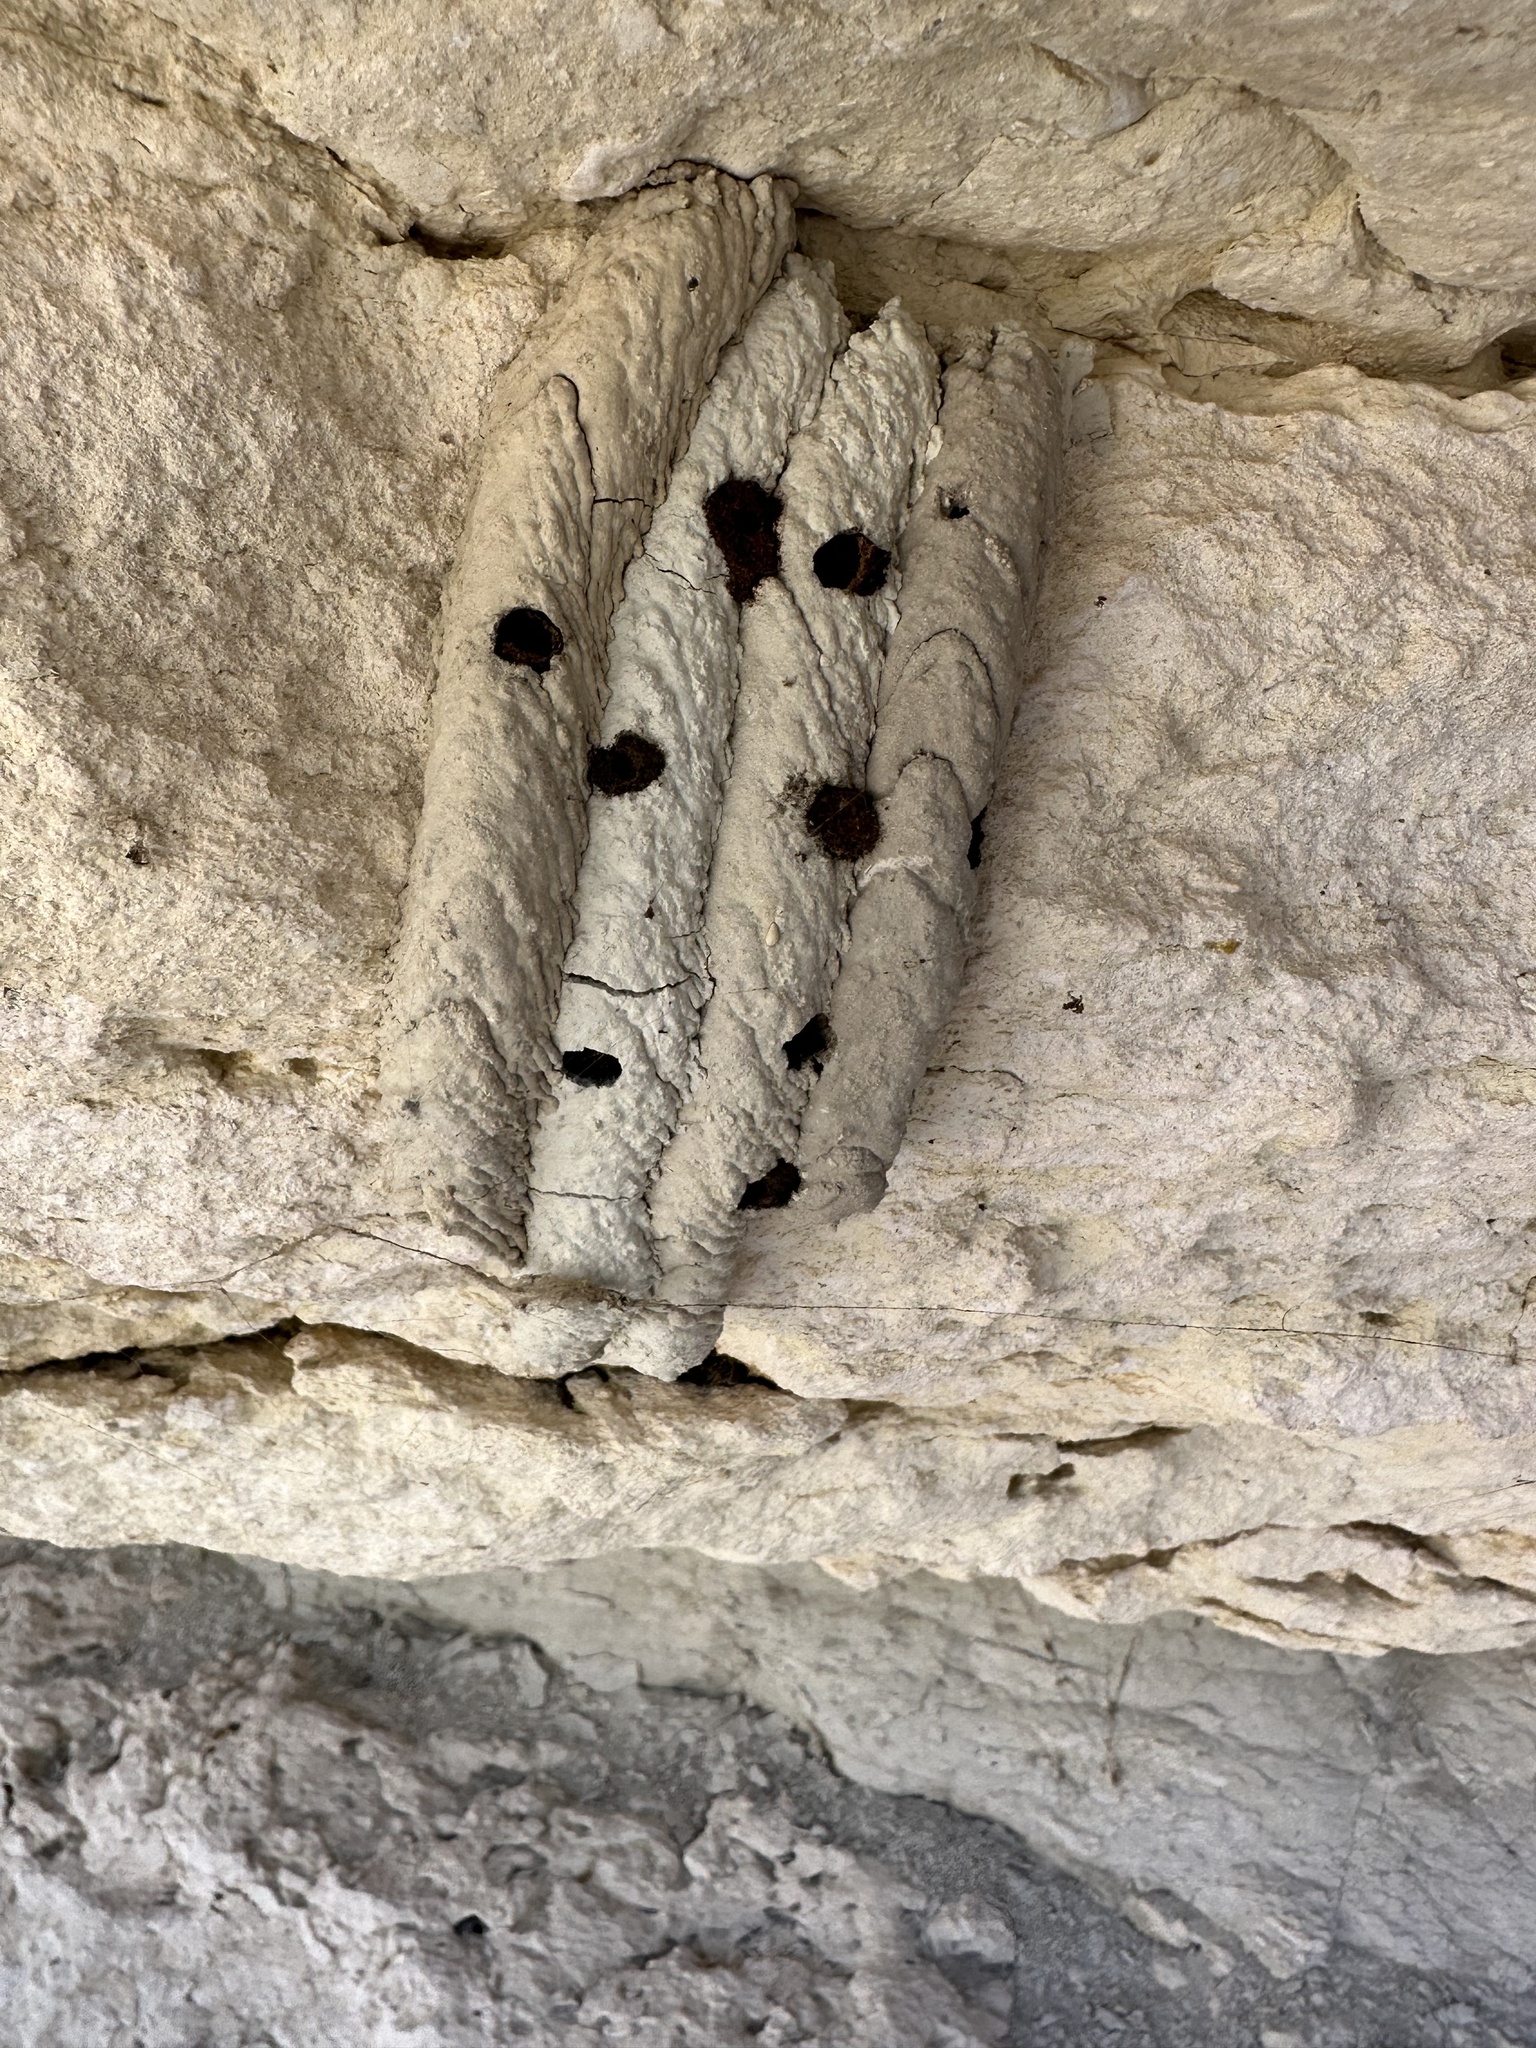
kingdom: Animalia
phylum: Arthropoda
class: Insecta
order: Hymenoptera
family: Crabronidae
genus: Trypoxylon
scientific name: Trypoxylon politum
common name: Organ-pipe mud-dauber wasp
